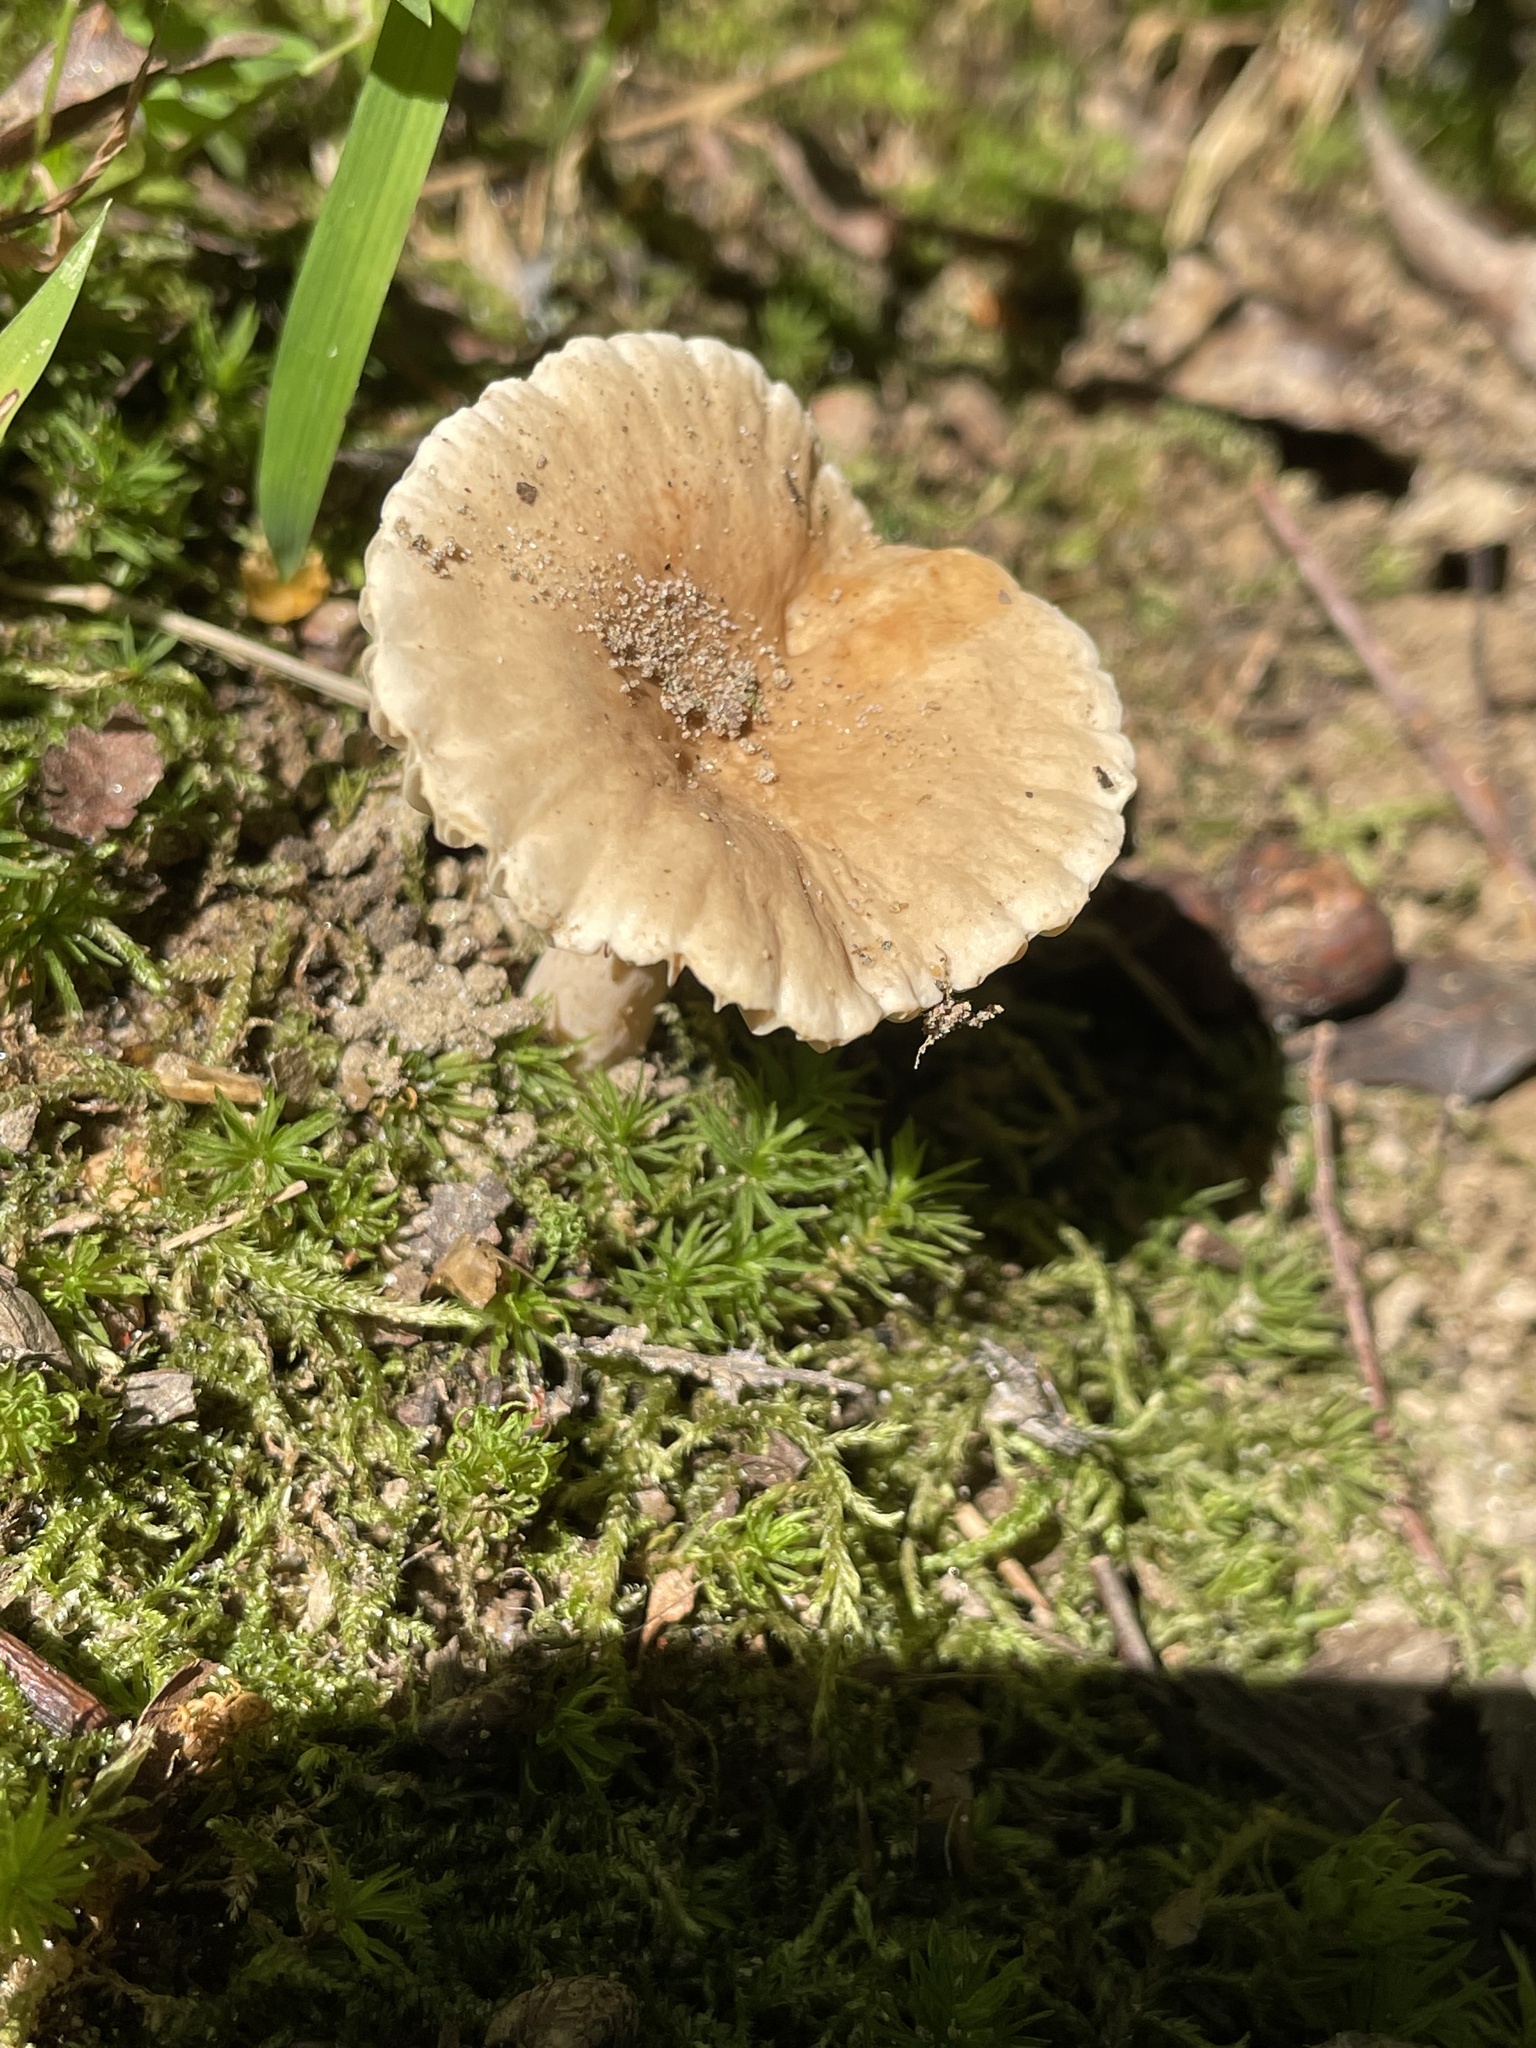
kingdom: Fungi
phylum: Basidiomycota
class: Agaricomycetes
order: Russulales
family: Russulaceae
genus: Lactarius
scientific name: Lactarius subplinthogalus
